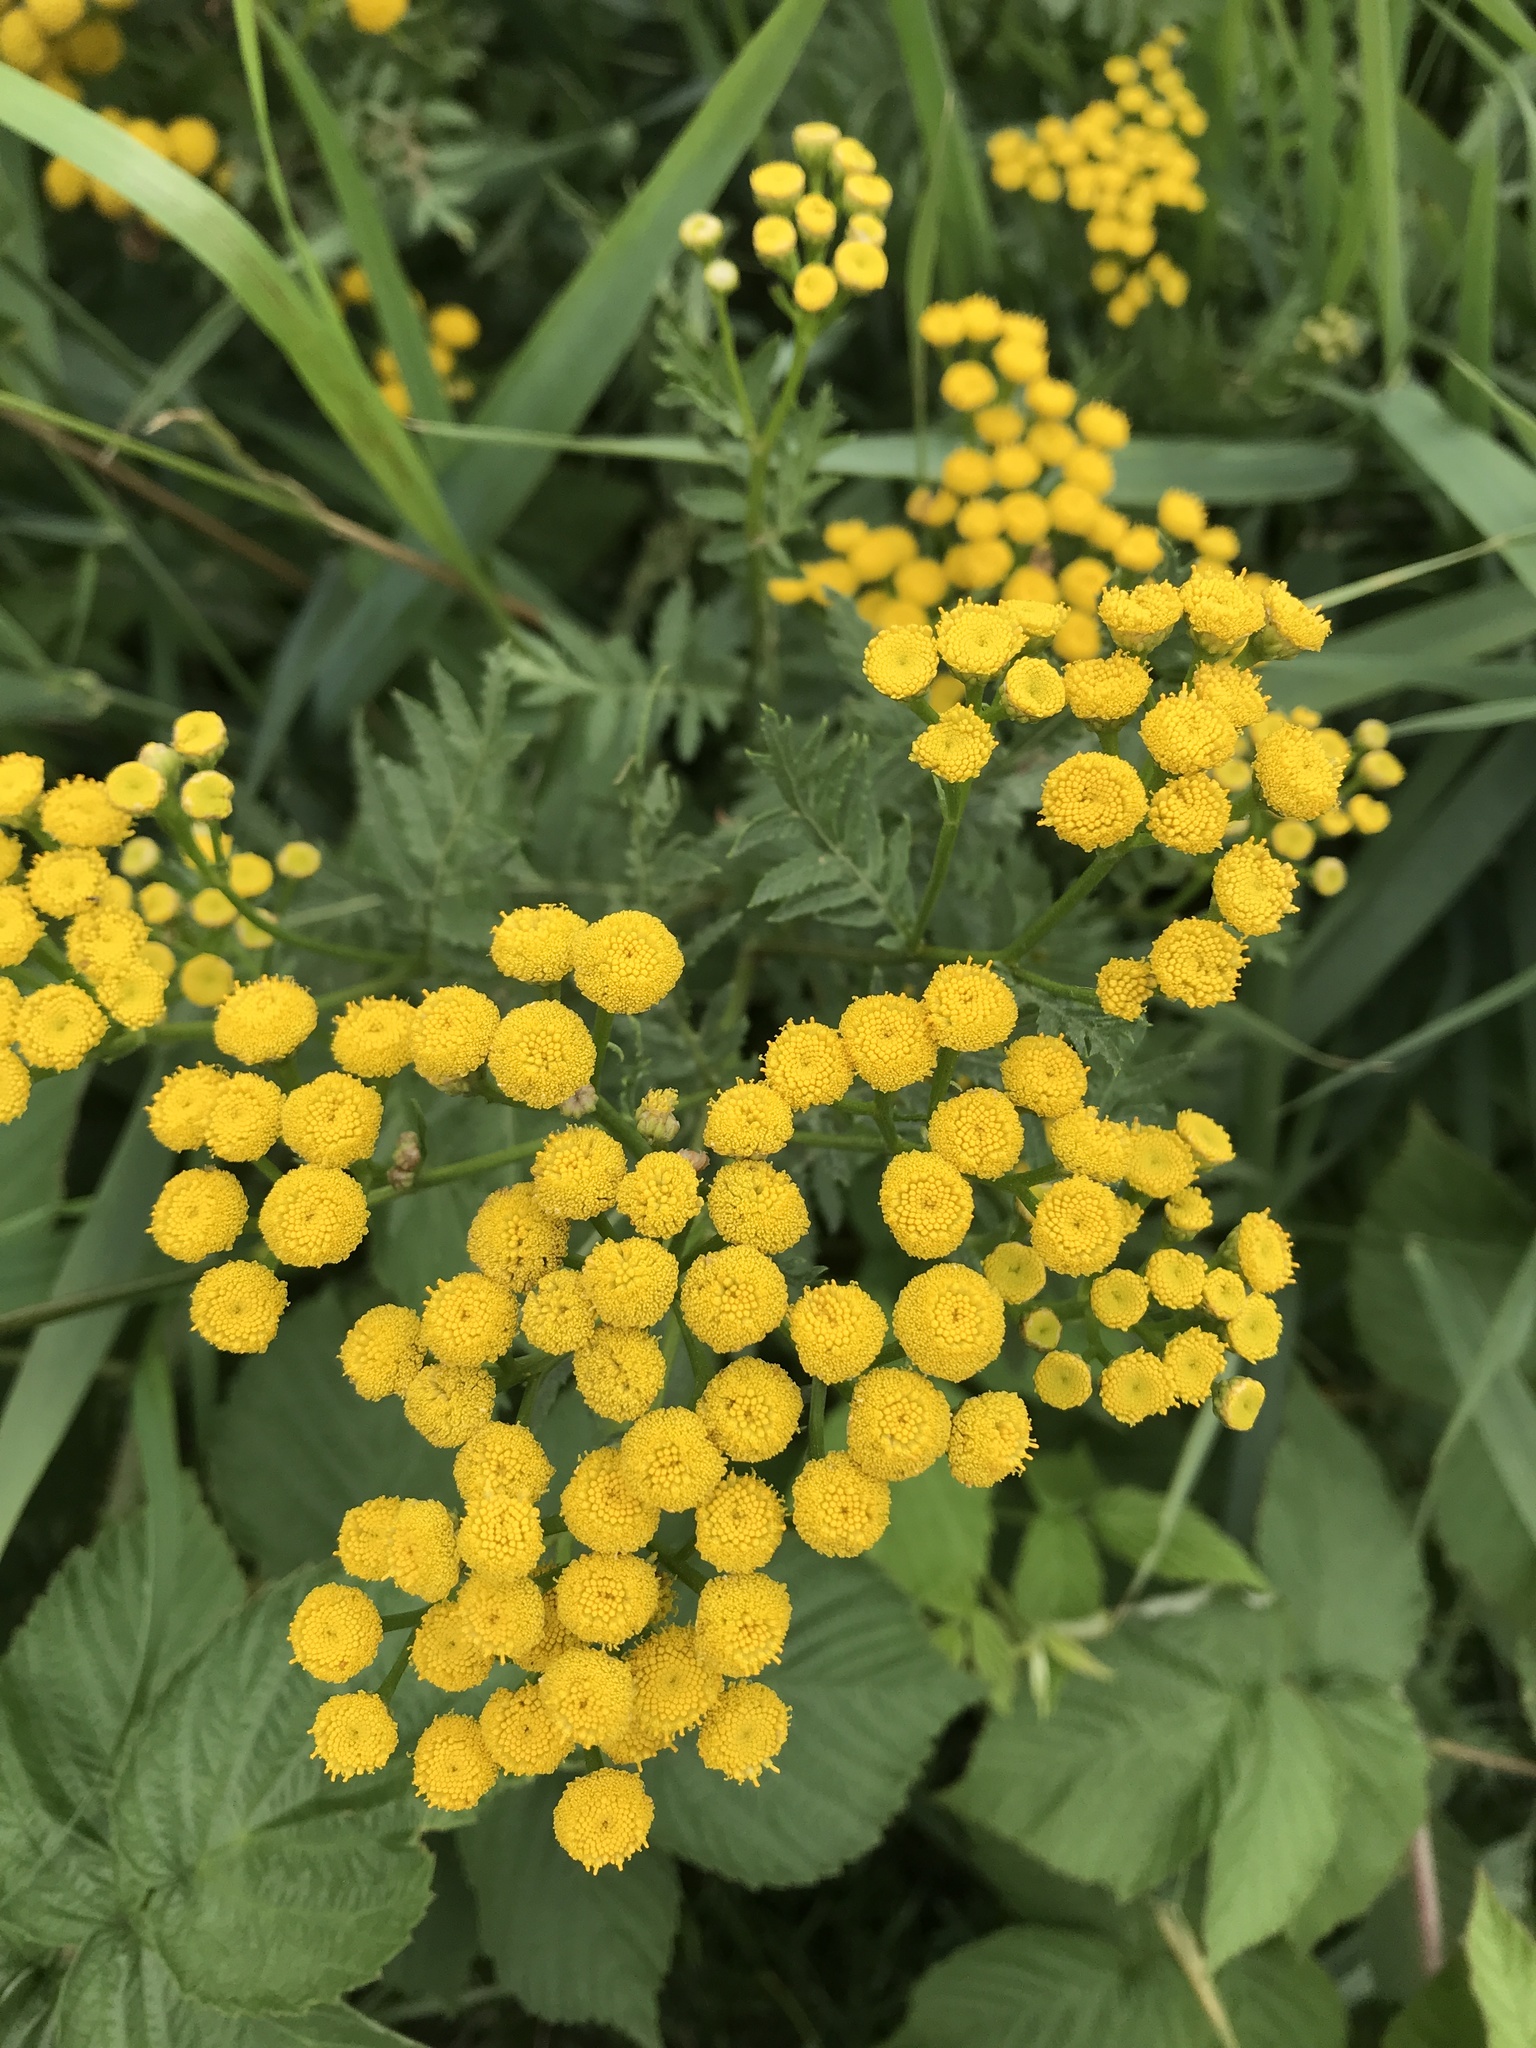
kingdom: Plantae
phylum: Tracheophyta
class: Magnoliopsida
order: Asterales
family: Asteraceae
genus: Tanacetum
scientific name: Tanacetum vulgare
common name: Common tansy
